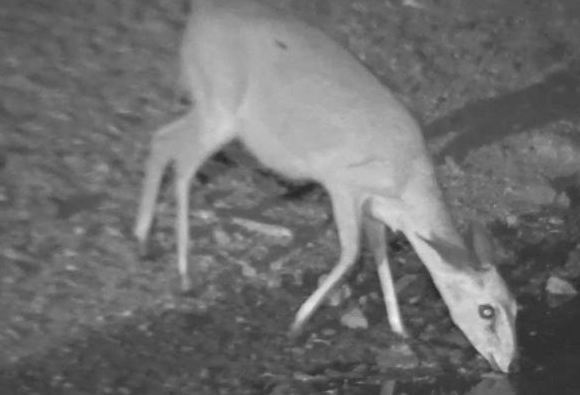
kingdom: Animalia
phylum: Chordata
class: Mammalia
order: Artiodactyla
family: Bovidae
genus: Sylvicapra
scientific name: Sylvicapra grimmia
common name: Bush duiker
